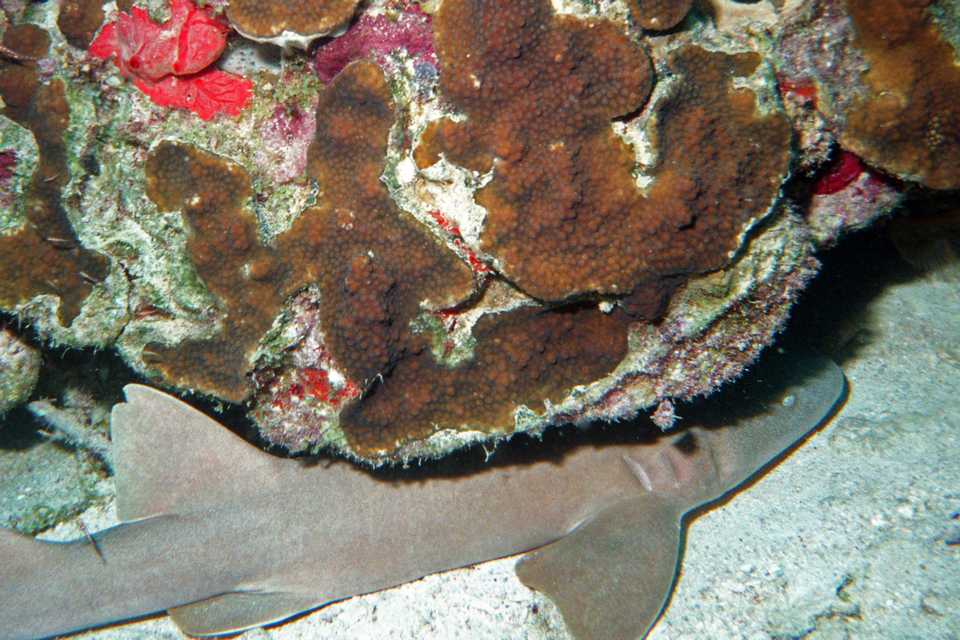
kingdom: Animalia
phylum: Chordata
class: Elasmobranchii
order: Orectolobiformes
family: Ginglymostomatidae
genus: Ginglymostoma
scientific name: Ginglymostoma cirratum
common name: Nurse shark
